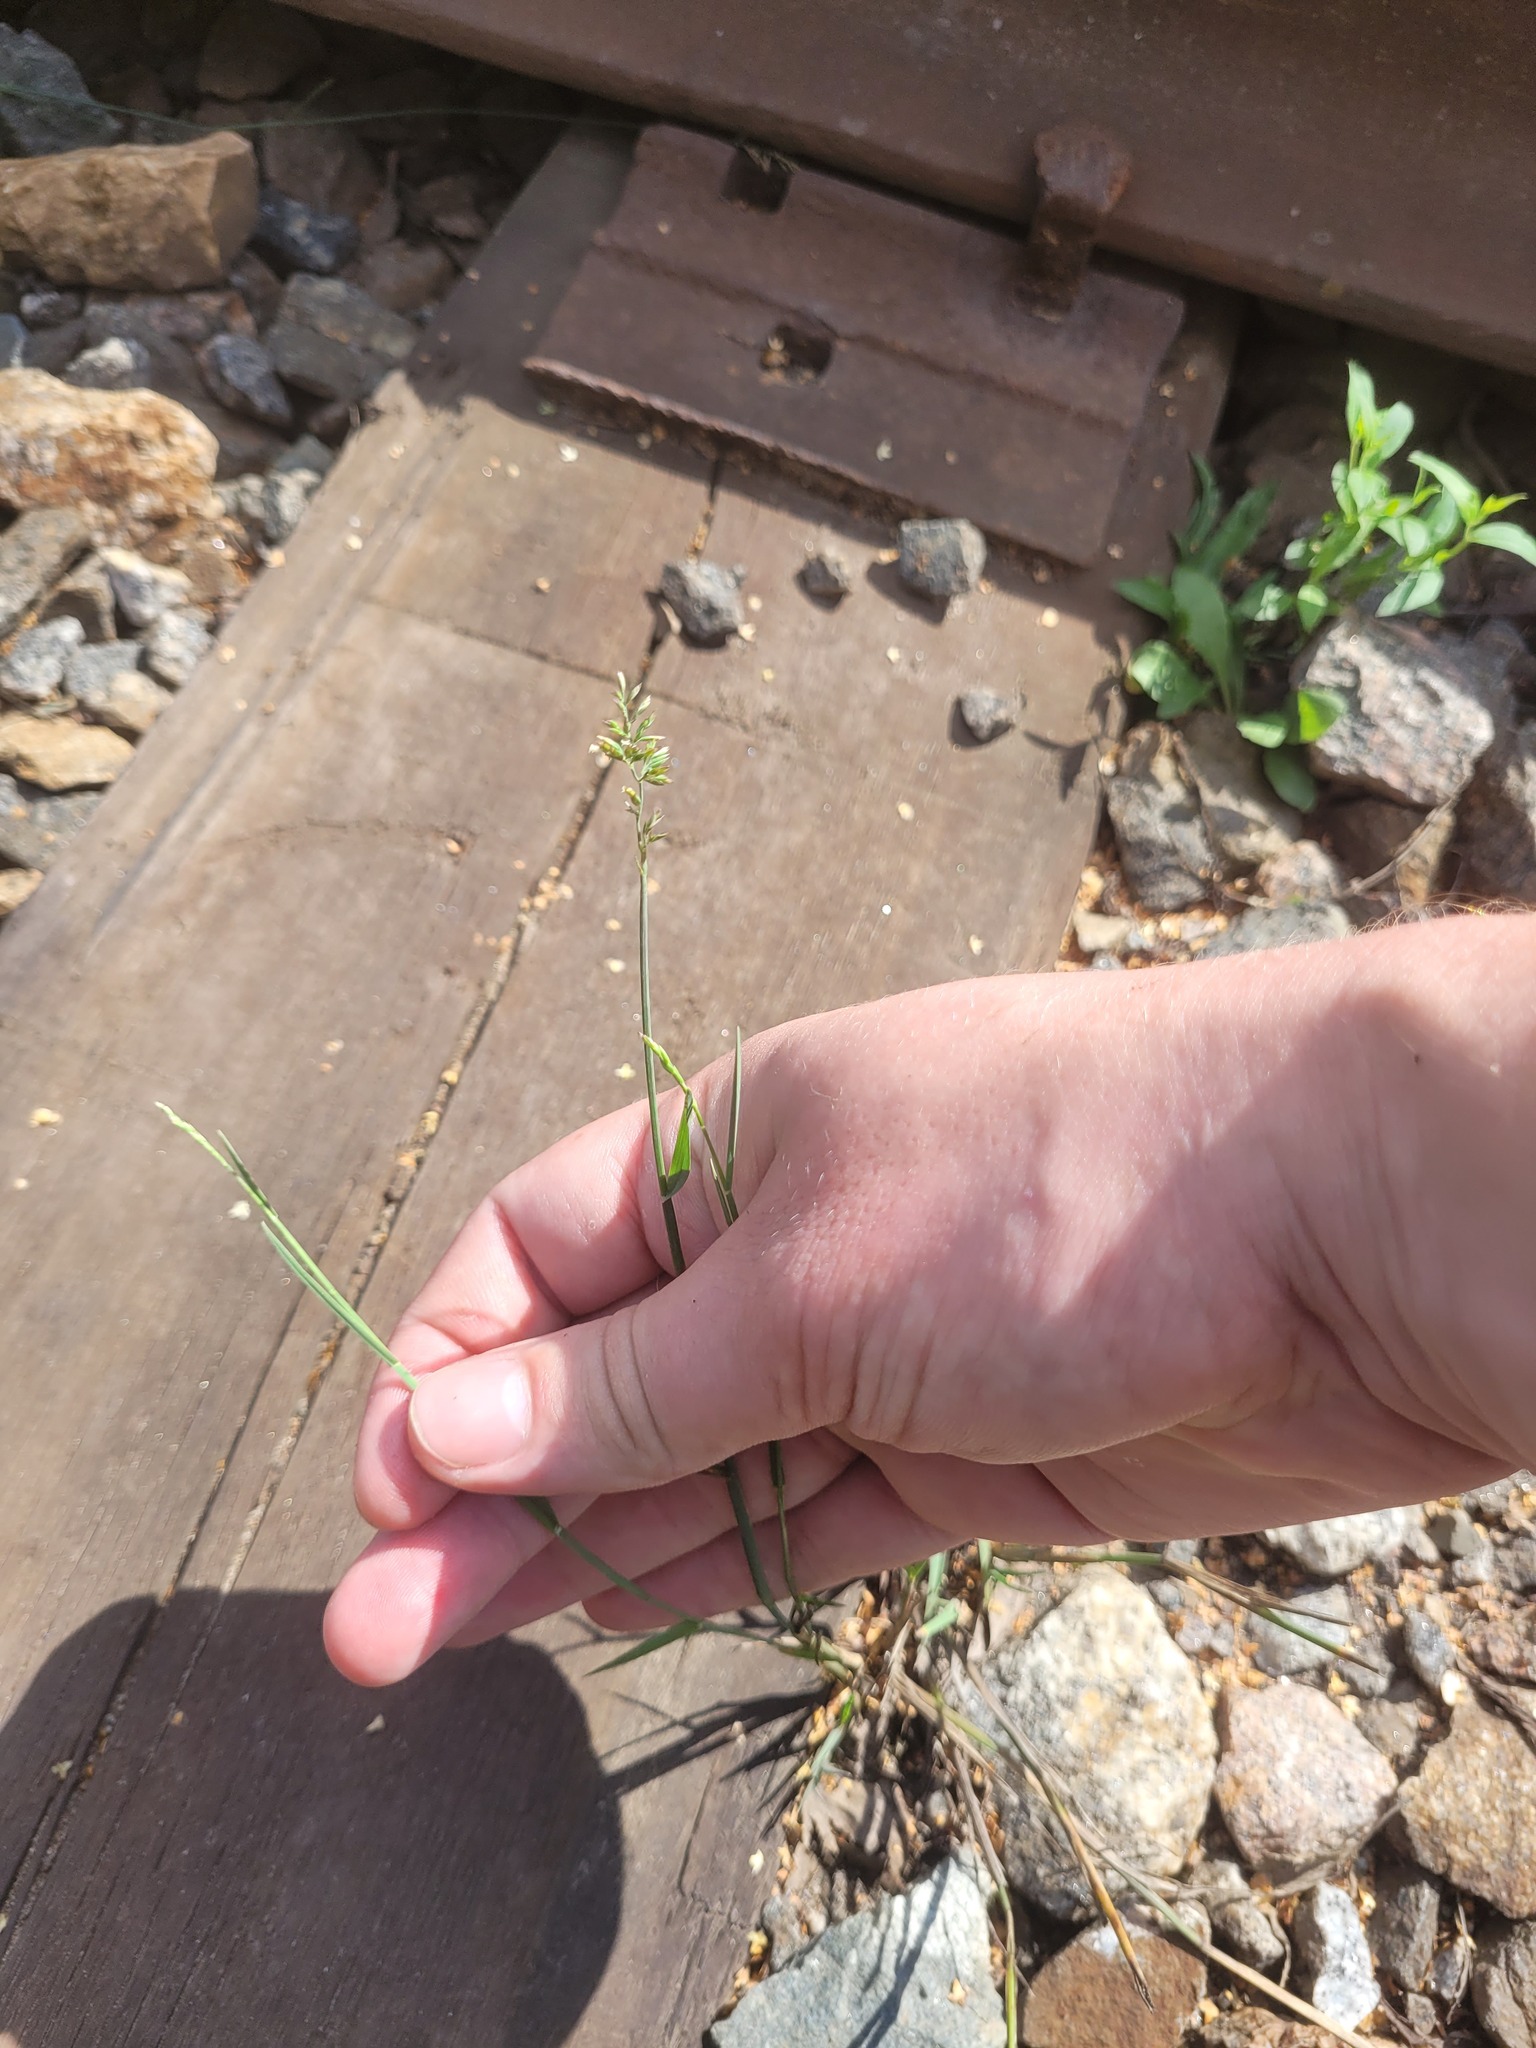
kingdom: Plantae
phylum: Tracheophyta
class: Liliopsida
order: Poales
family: Poaceae
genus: Poa
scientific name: Poa compressa
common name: Canada bluegrass
